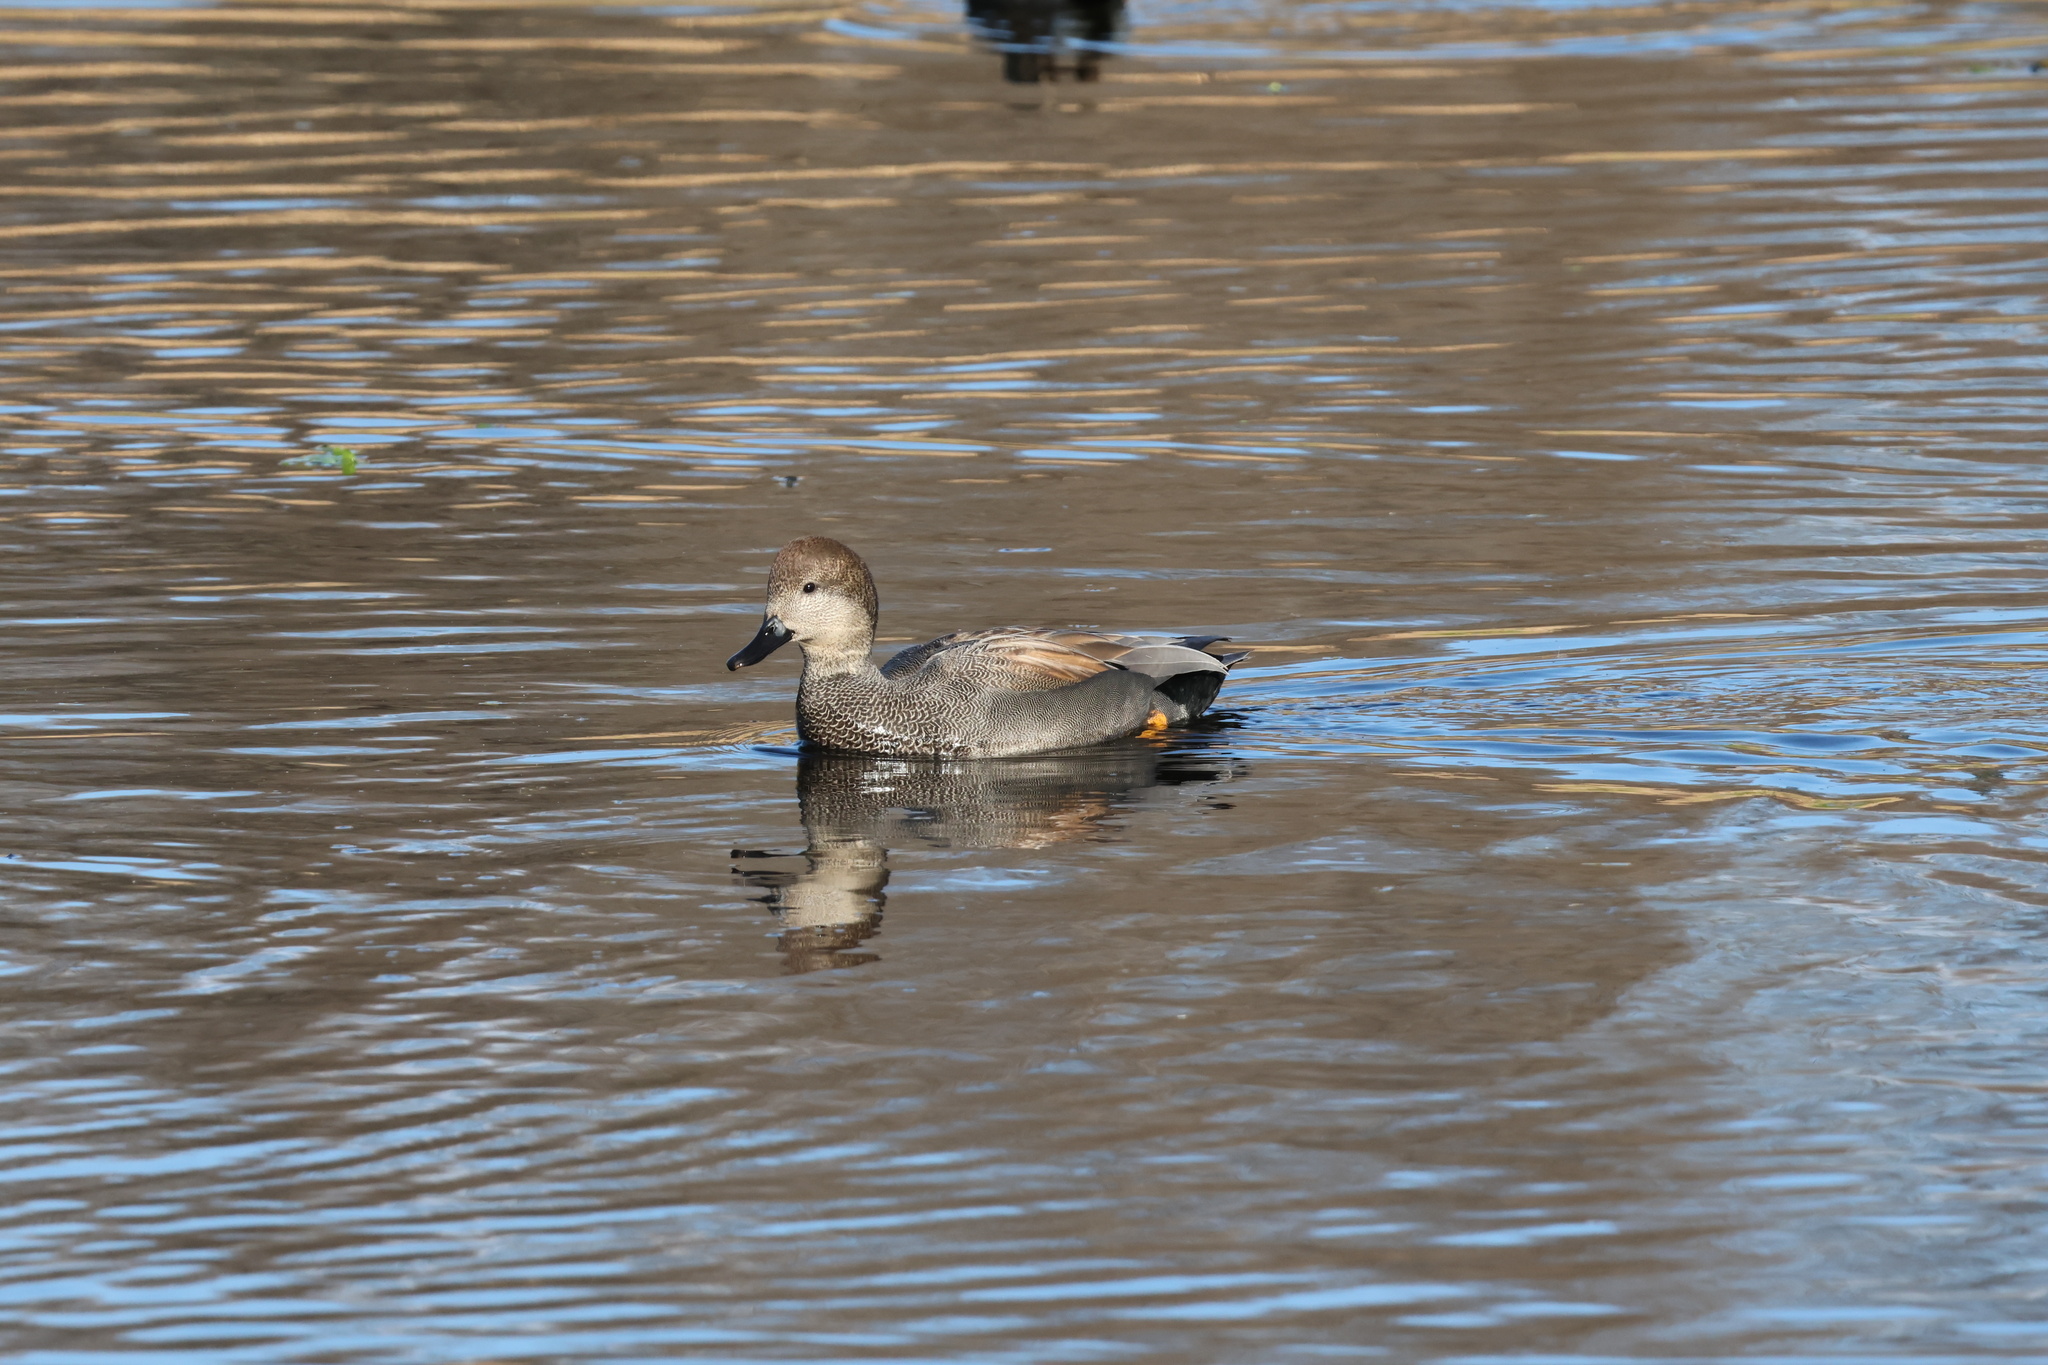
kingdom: Animalia
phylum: Chordata
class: Aves
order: Anseriformes
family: Anatidae
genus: Mareca
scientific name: Mareca strepera
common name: Gadwall
